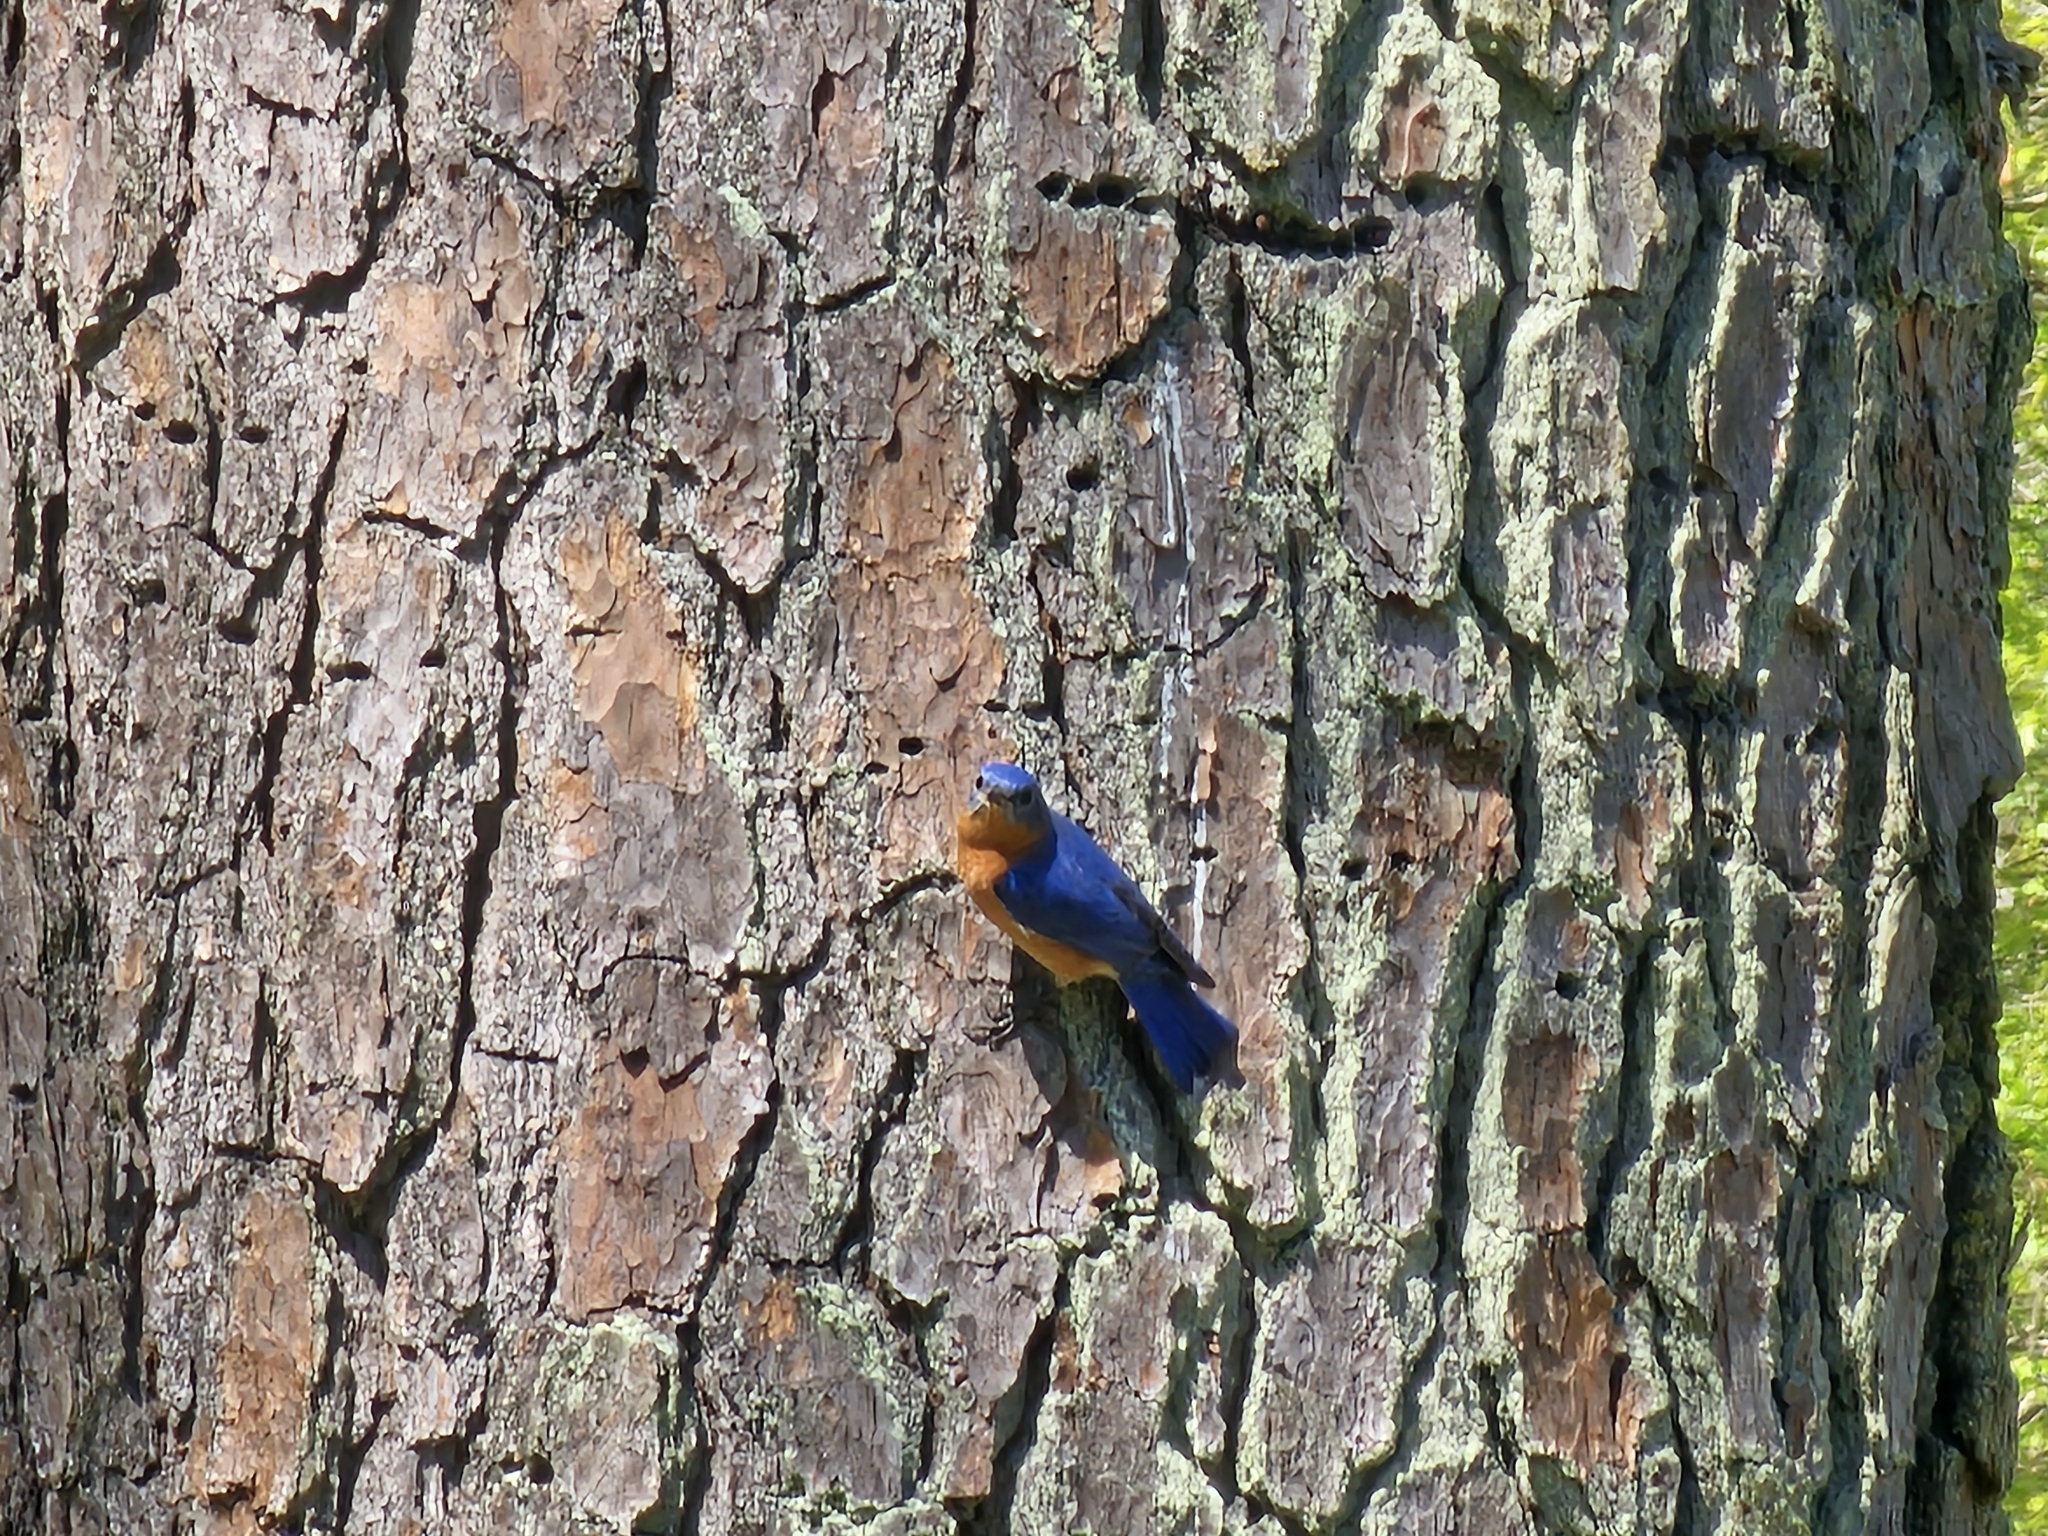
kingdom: Animalia
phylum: Chordata
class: Aves
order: Passeriformes
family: Turdidae
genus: Sialia
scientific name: Sialia sialis
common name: Eastern bluebird
